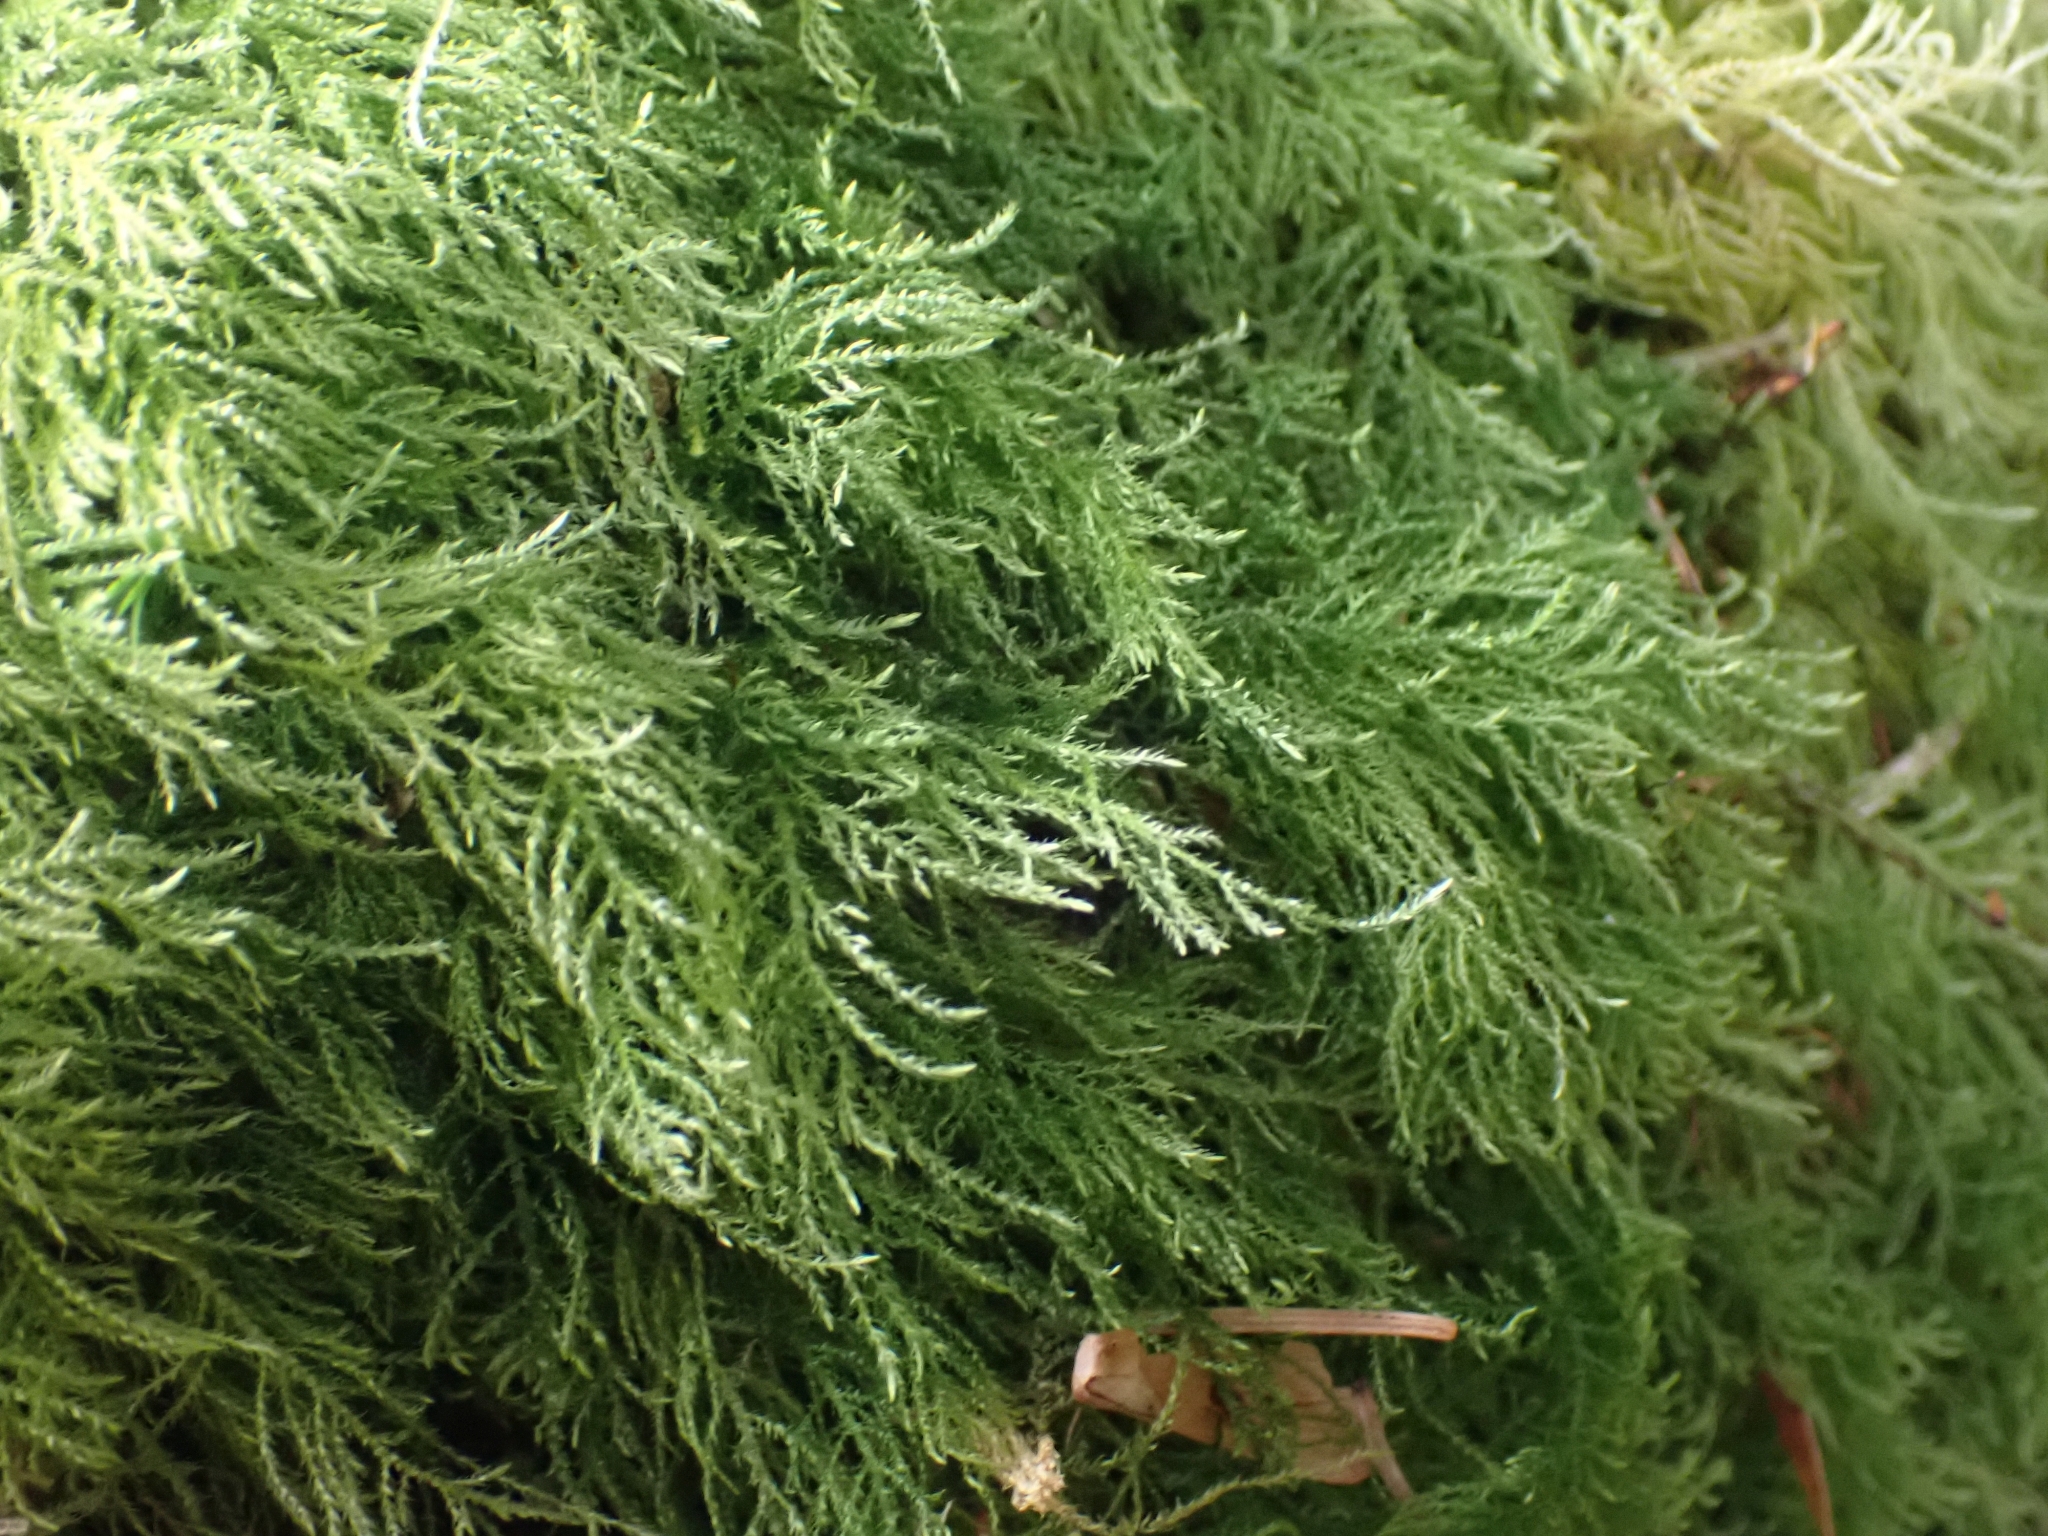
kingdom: Plantae
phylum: Bryophyta
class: Bryopsida
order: Hypnales
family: Lembophyllaceae
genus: Pseudisothecium
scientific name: Pseudisothecium stoloniferum
